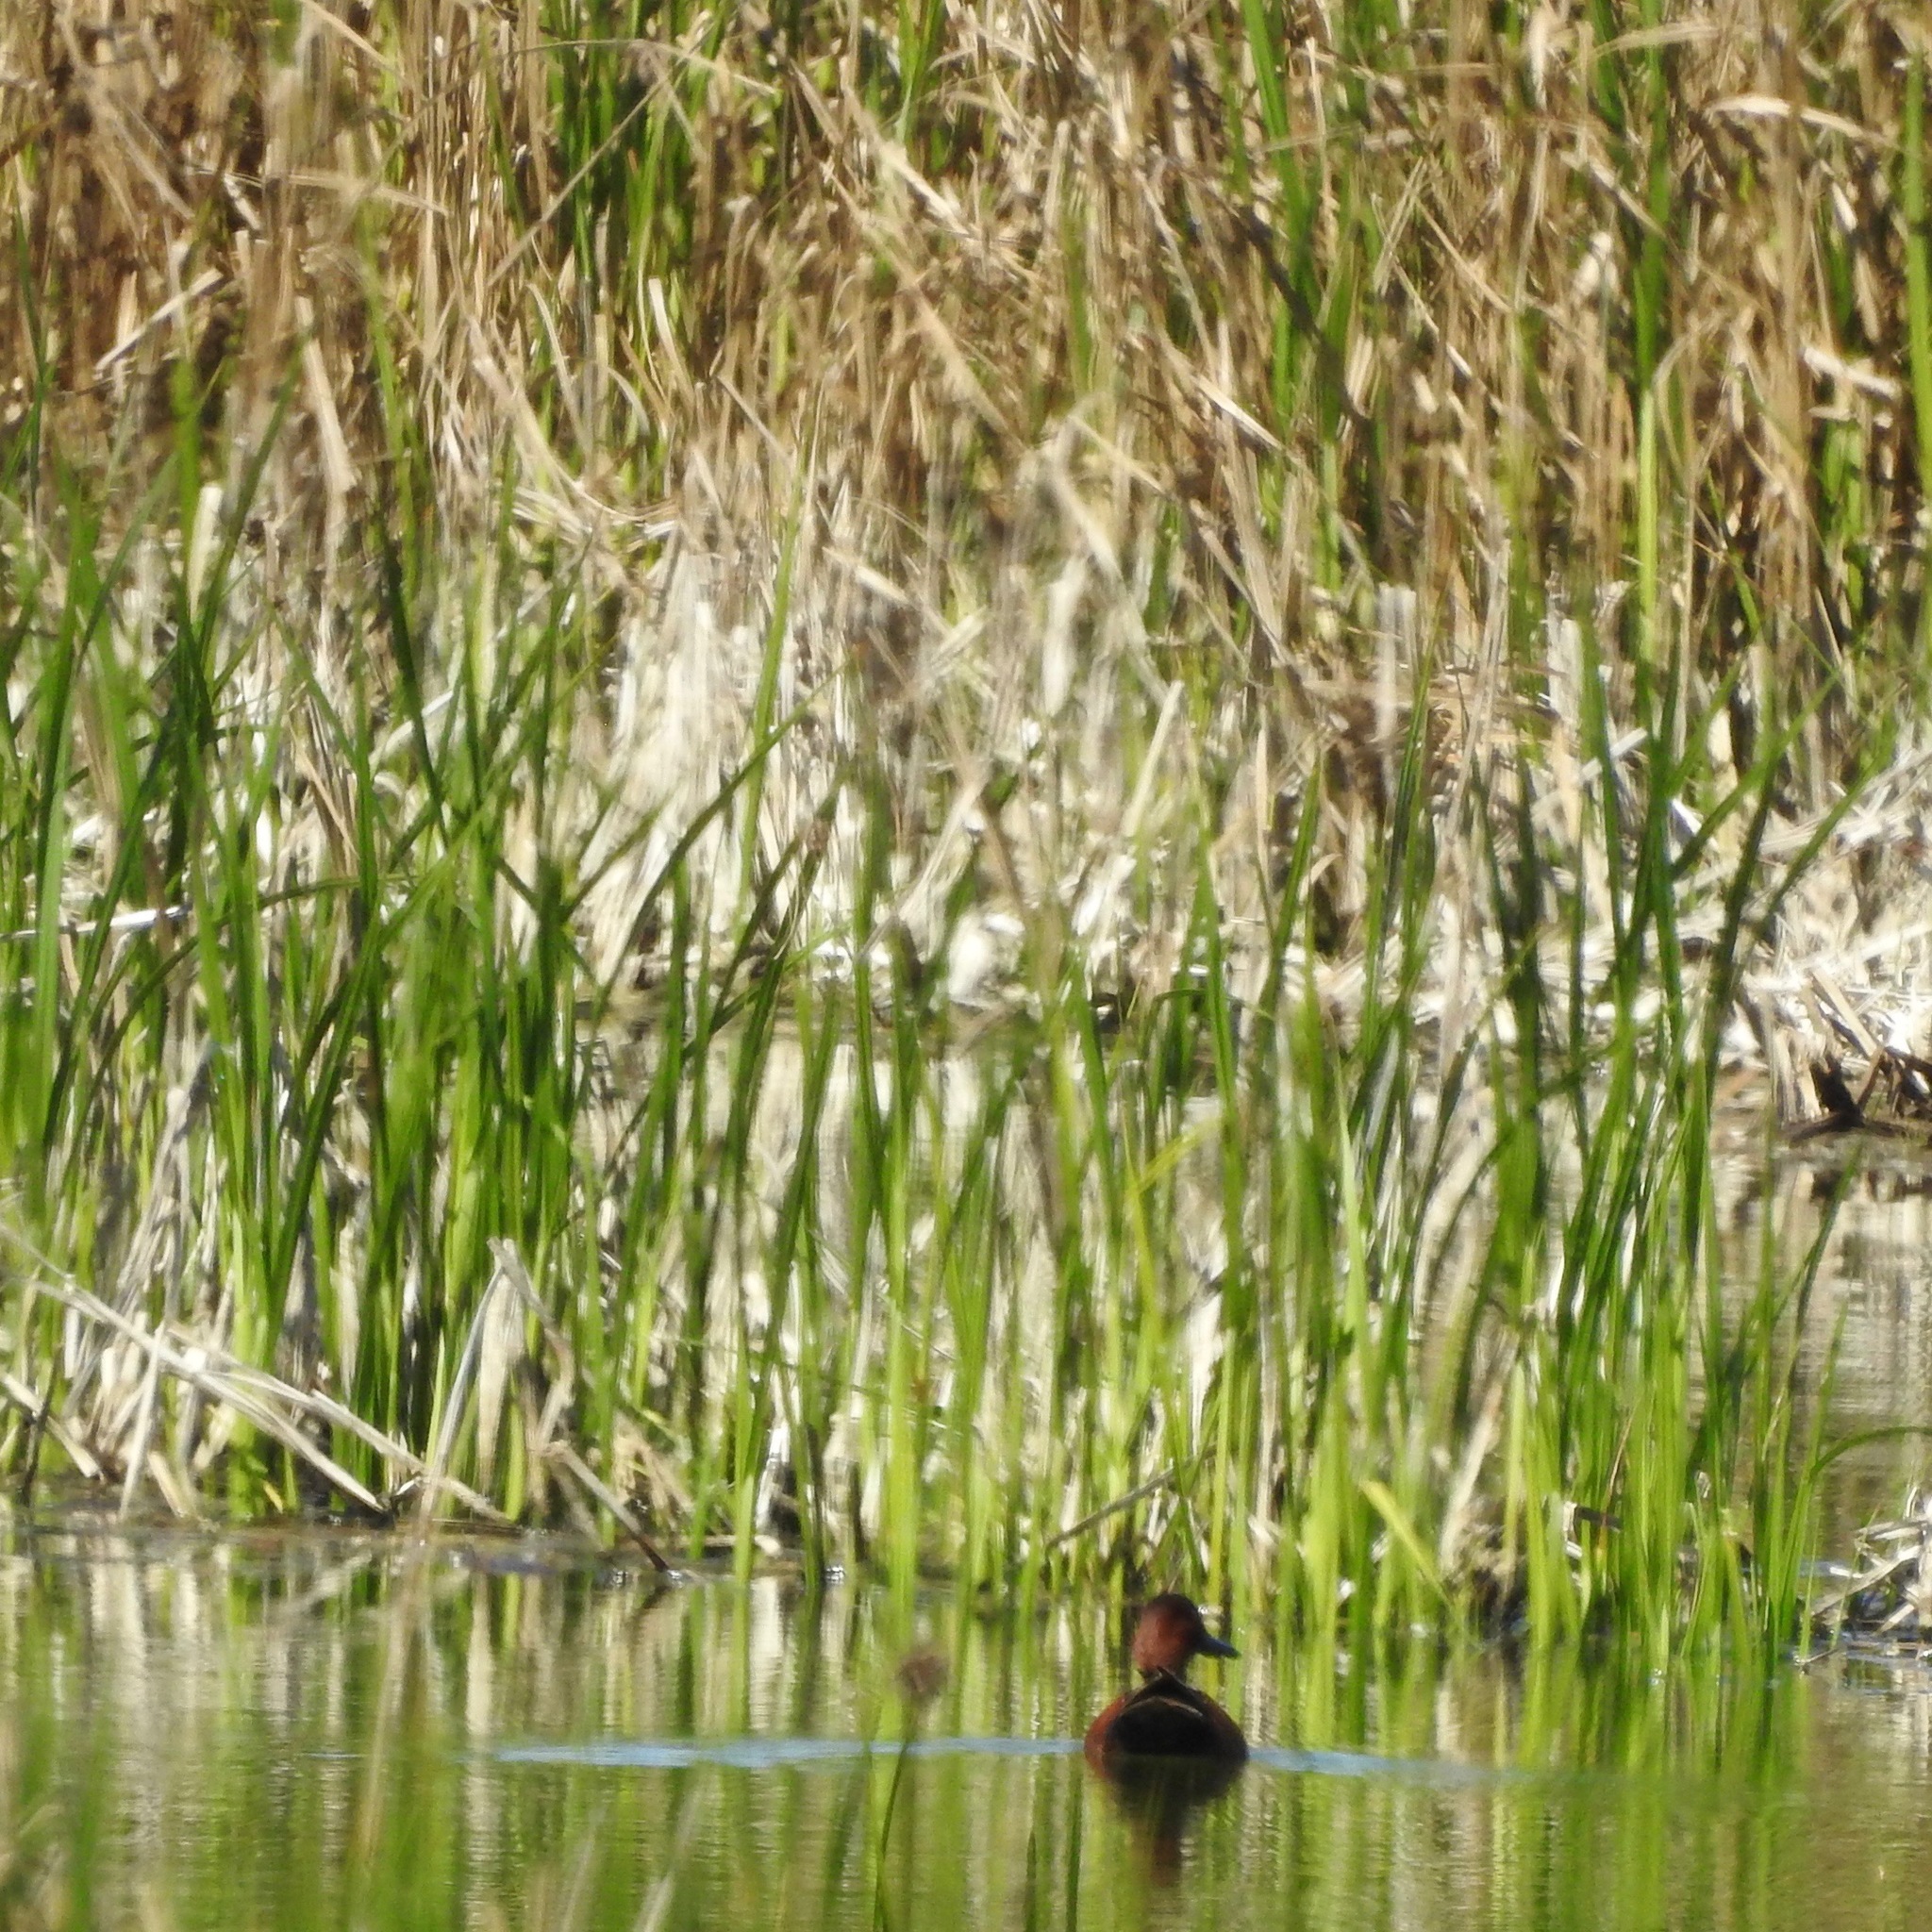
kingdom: Animalia
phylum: Chordata
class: Aves
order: Anseriformes
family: Anatidae
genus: Spatula
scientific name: Spatula cyanoptera
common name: Cinnamon teal
